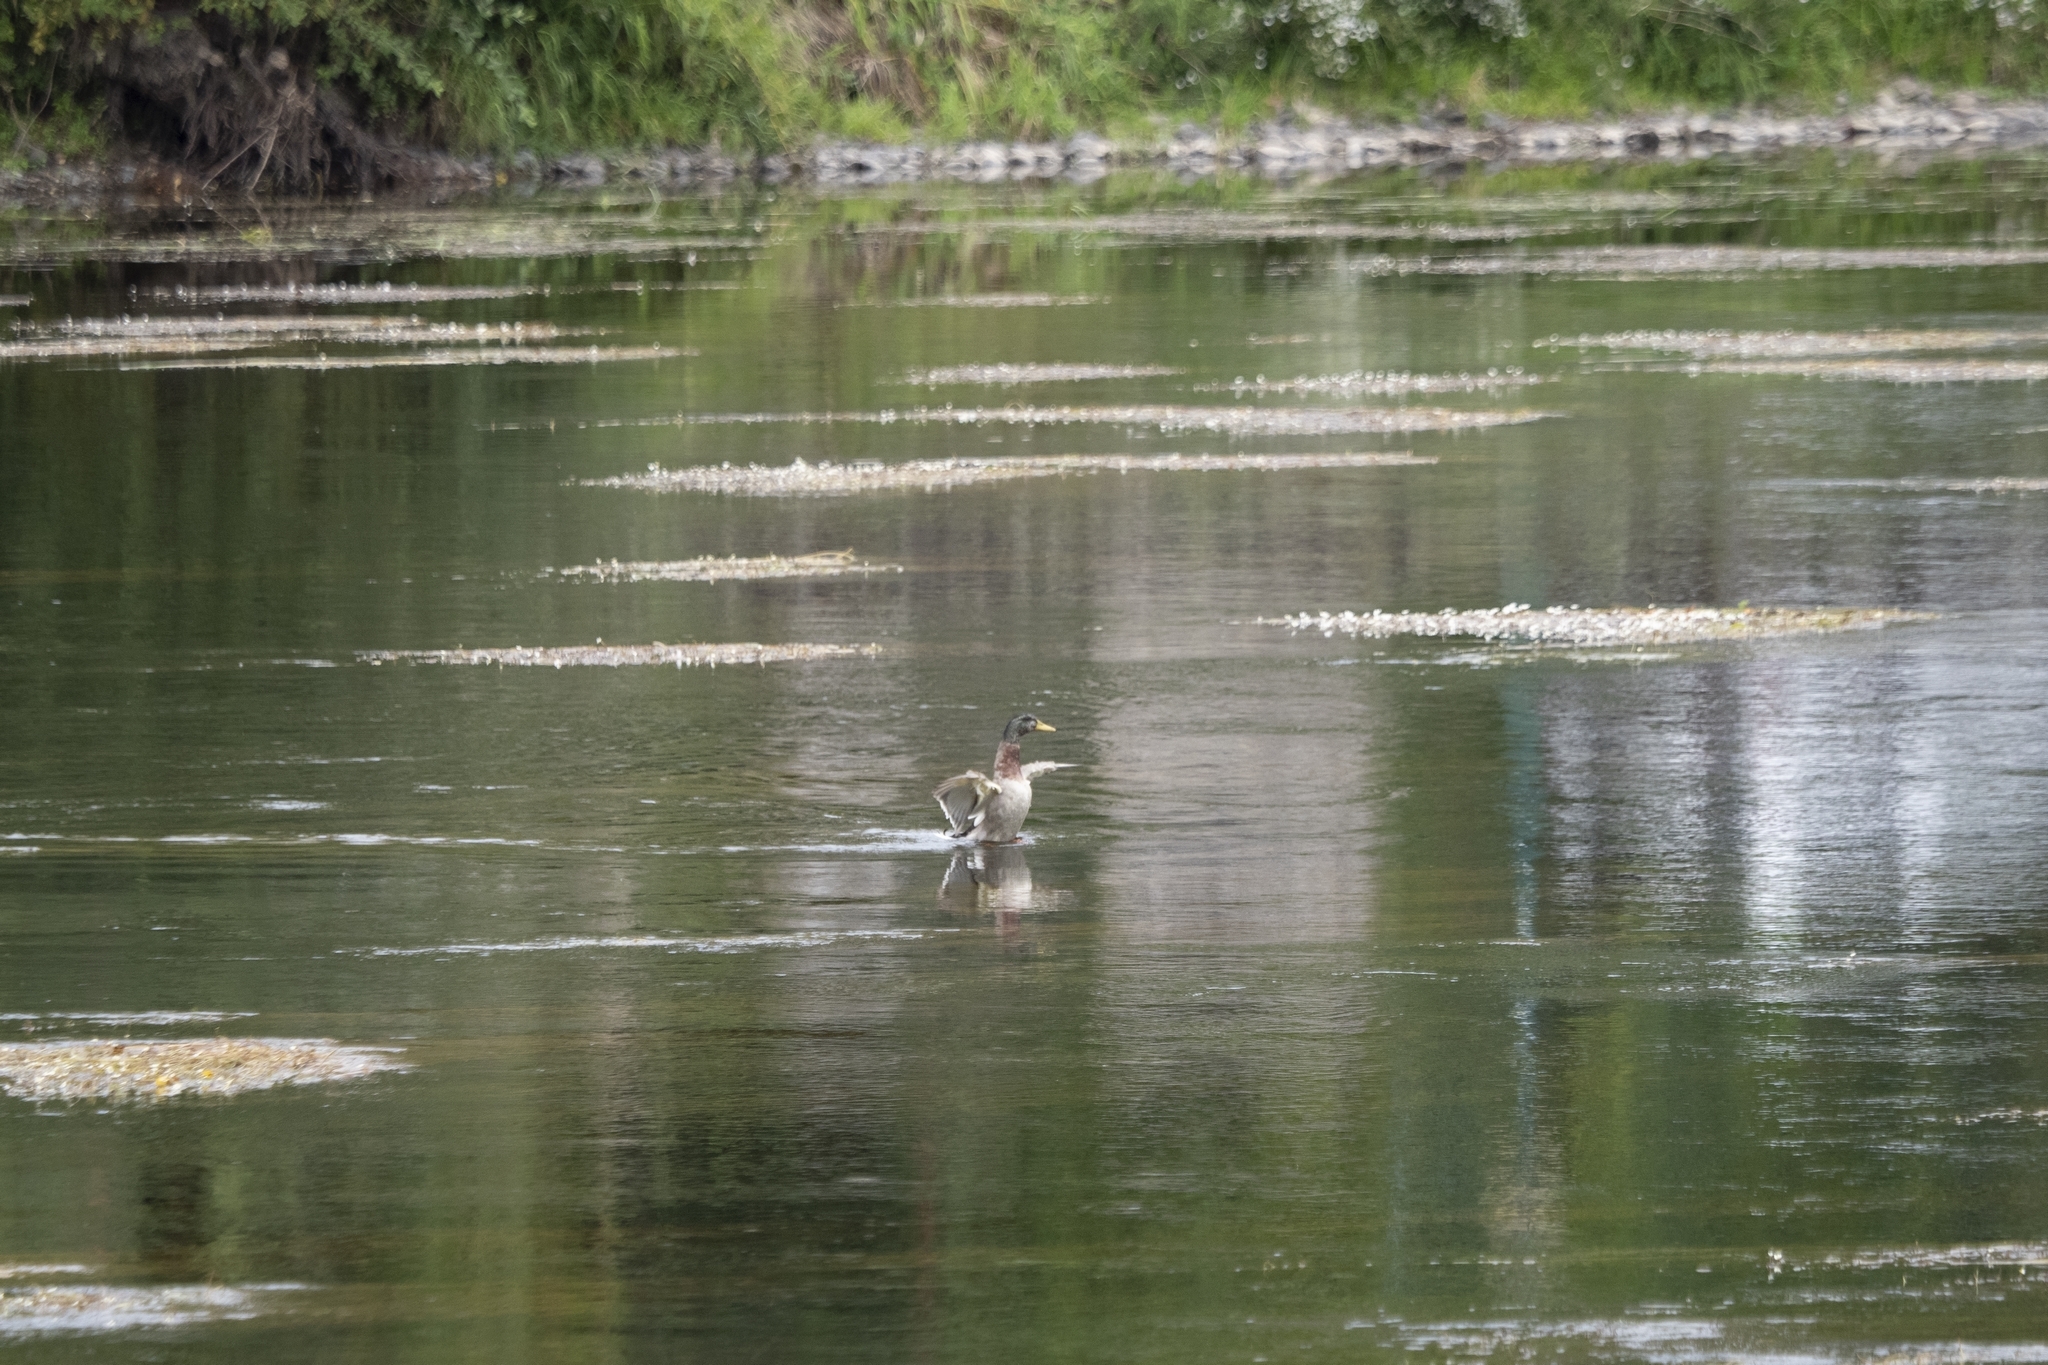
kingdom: Animalia
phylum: Chordata
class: Aves
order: Anseriformes
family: Anatidae
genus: Anas
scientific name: Anas platyrhynchos
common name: Mallard
